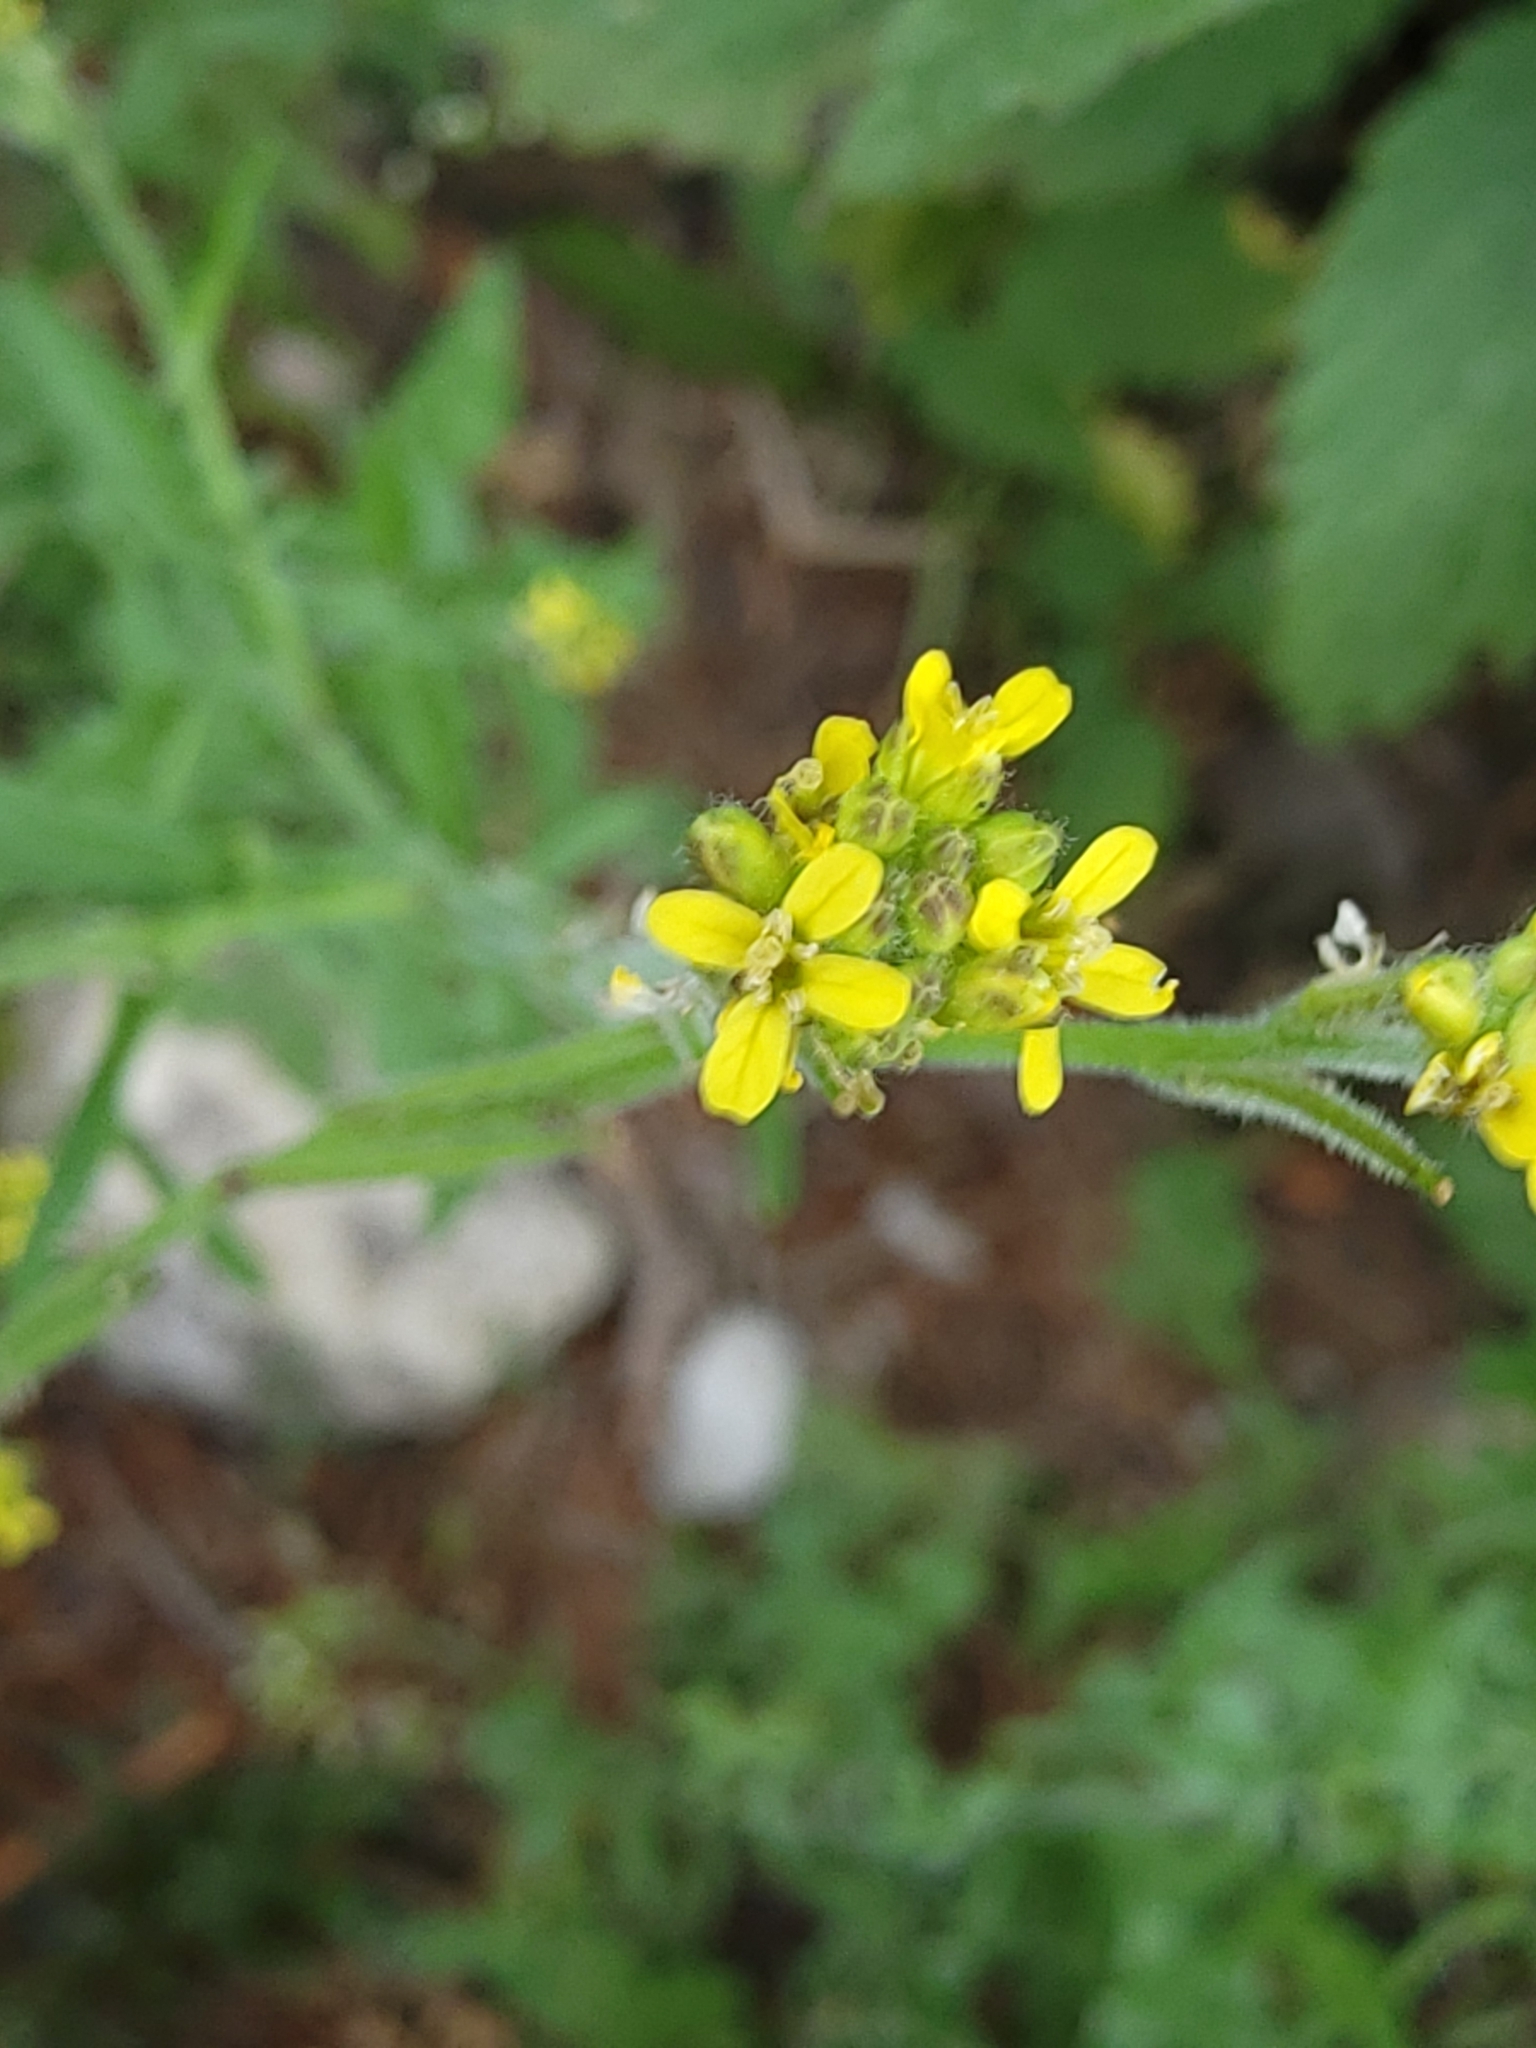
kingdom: Plantae
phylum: Tracheophyta
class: Magnoliopsida
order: Brassicales
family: Brassicaceae
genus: Sisymbrium
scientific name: Sisymbrium officinale
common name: Hedge mustard
